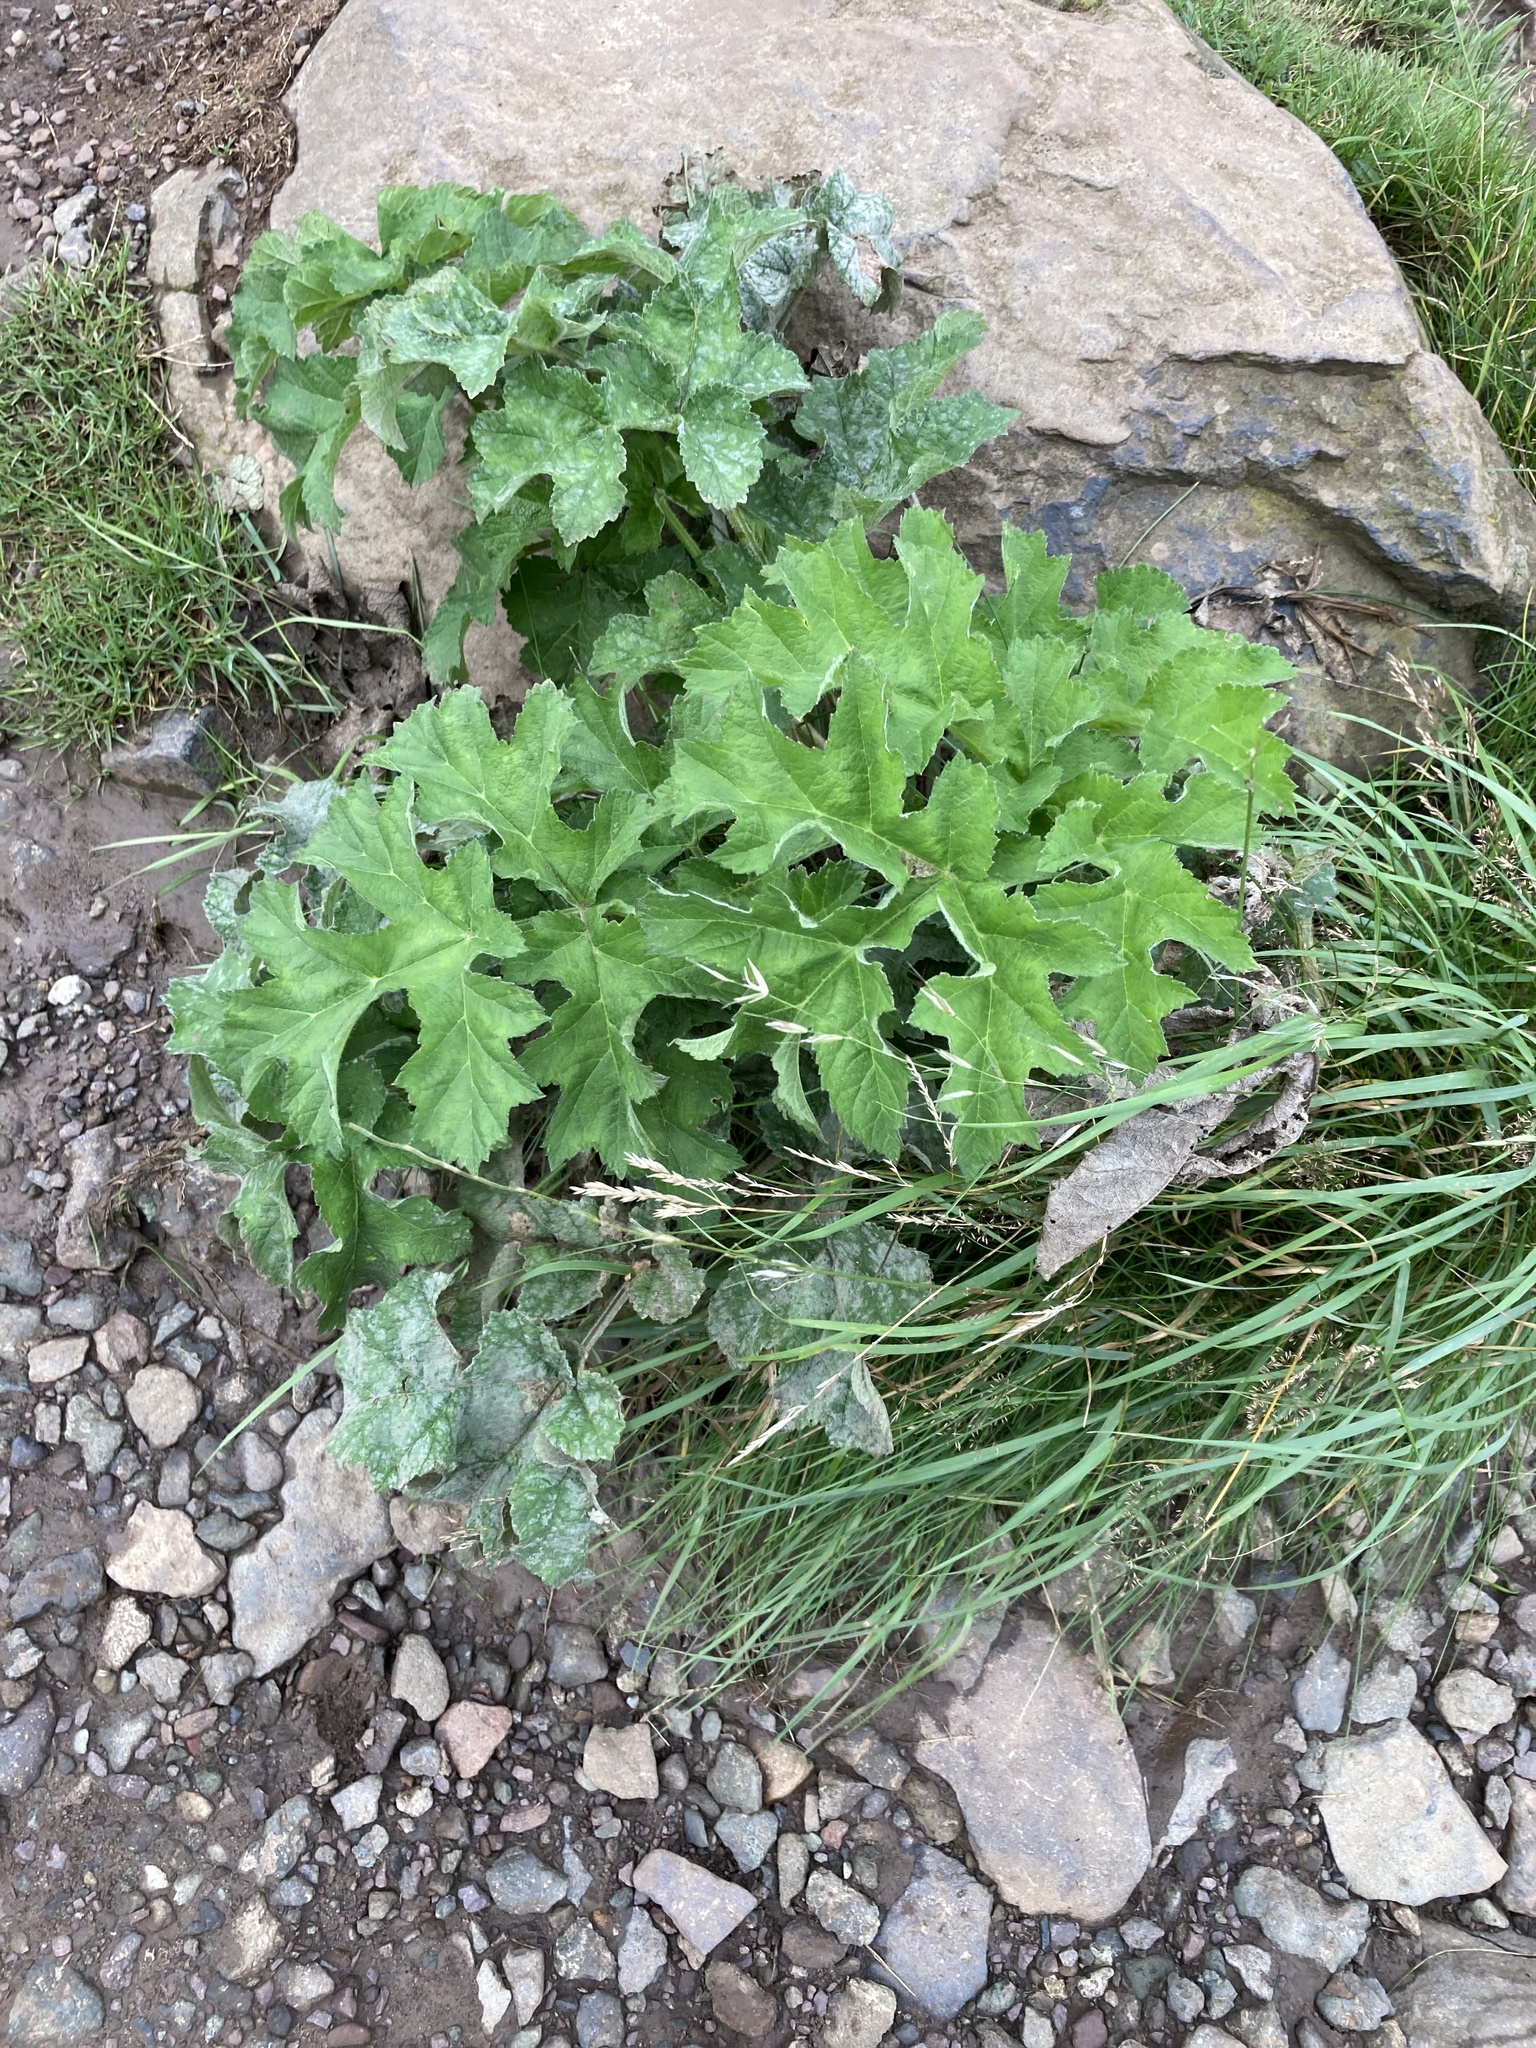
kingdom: Plantae
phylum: Tracheophyta
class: Magnoliopsida
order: Apiales
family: Apiaceae
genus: Heracleum
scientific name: Heracleum sphondylium
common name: Hogweed
